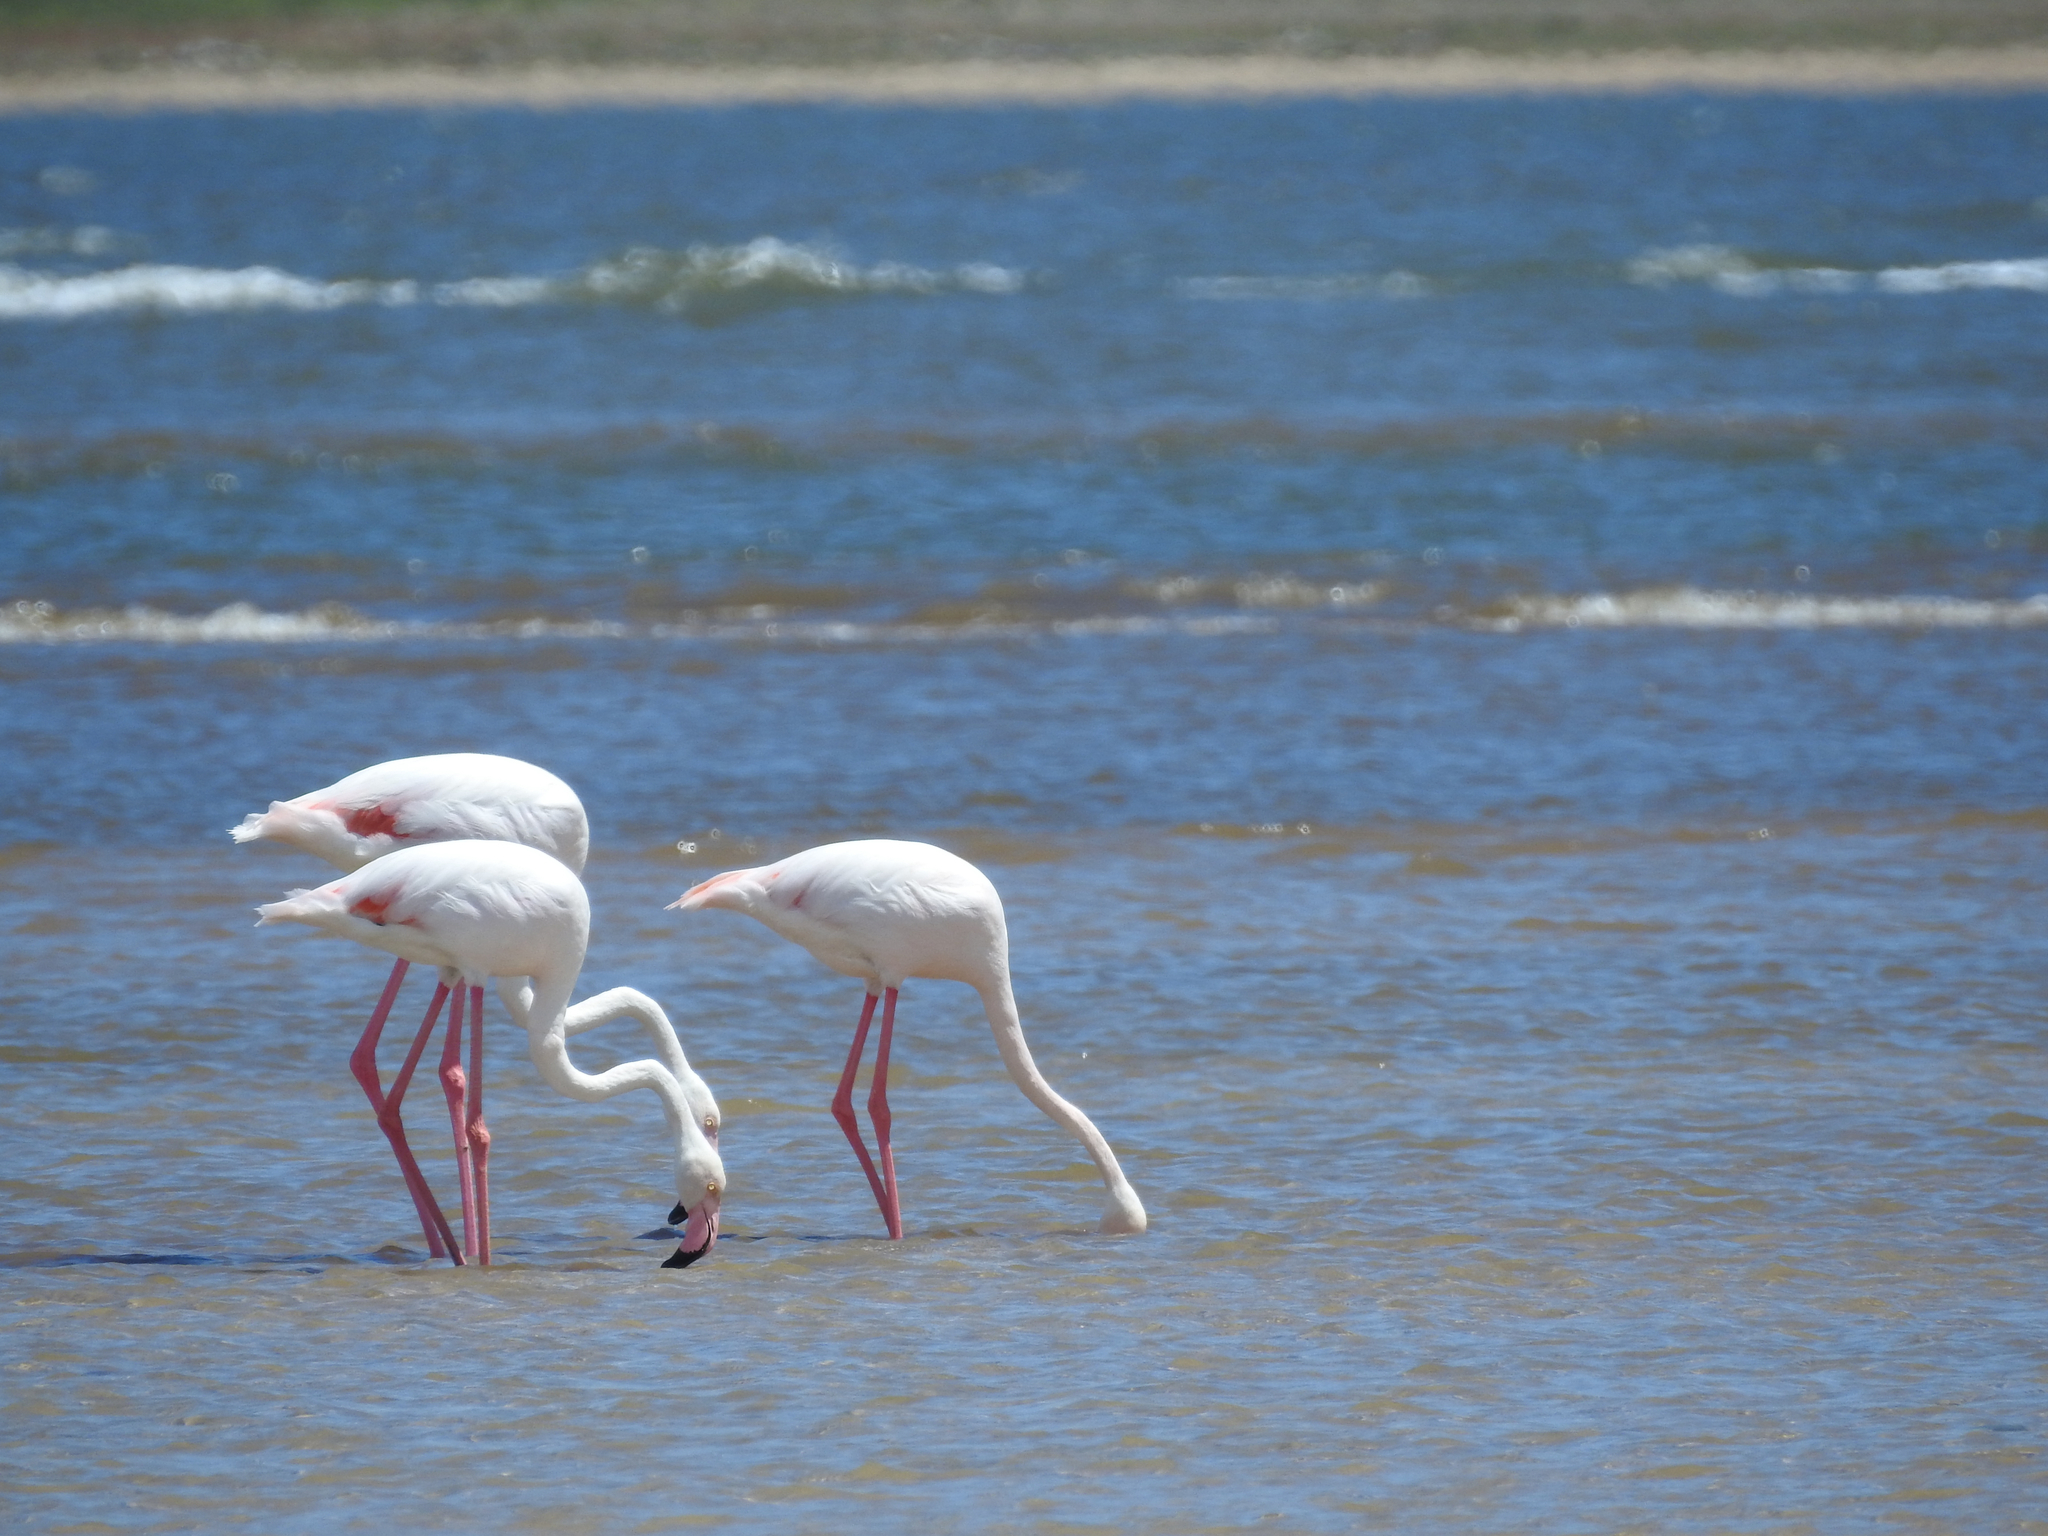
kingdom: Animalia
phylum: Chordata
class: Aves
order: Phoenicopteriformes
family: Phoenicopteridae
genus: Phoenicopterus
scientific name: Phoenicopterus roseus
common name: Greater flamingo
